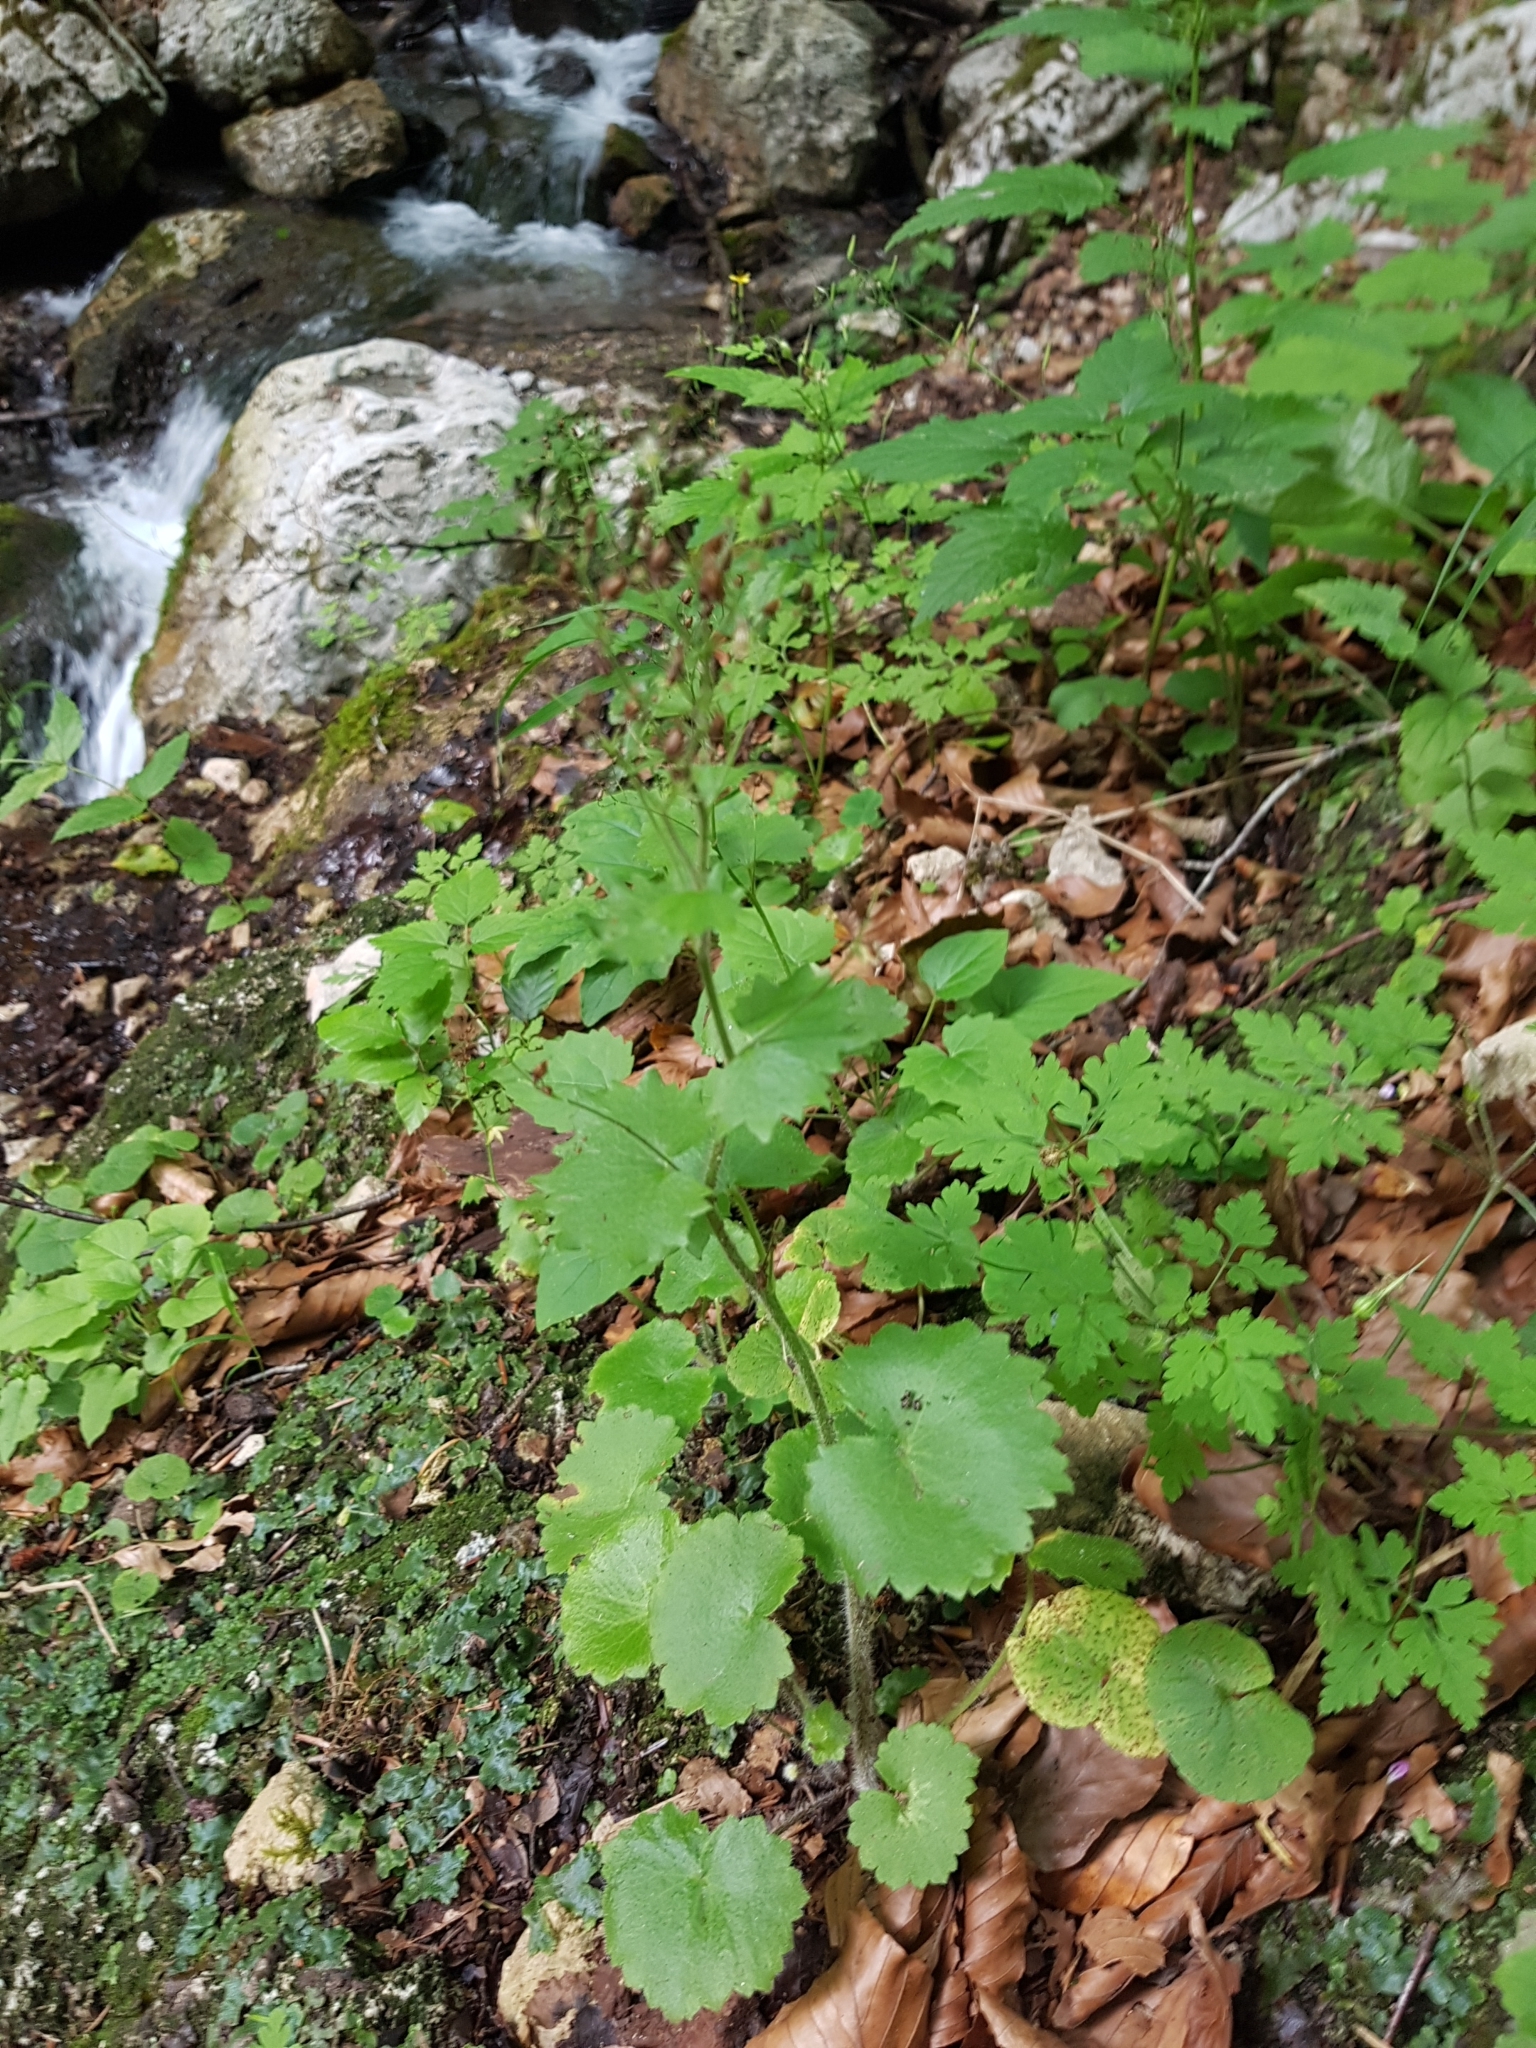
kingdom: Plantae
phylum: Tracheophyta
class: Magnoliopsida
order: Saxifragales
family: Saxifragaceae
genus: Saxifraga
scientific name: Saxifraga rotundifolia
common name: Round-leaved saxifrage
